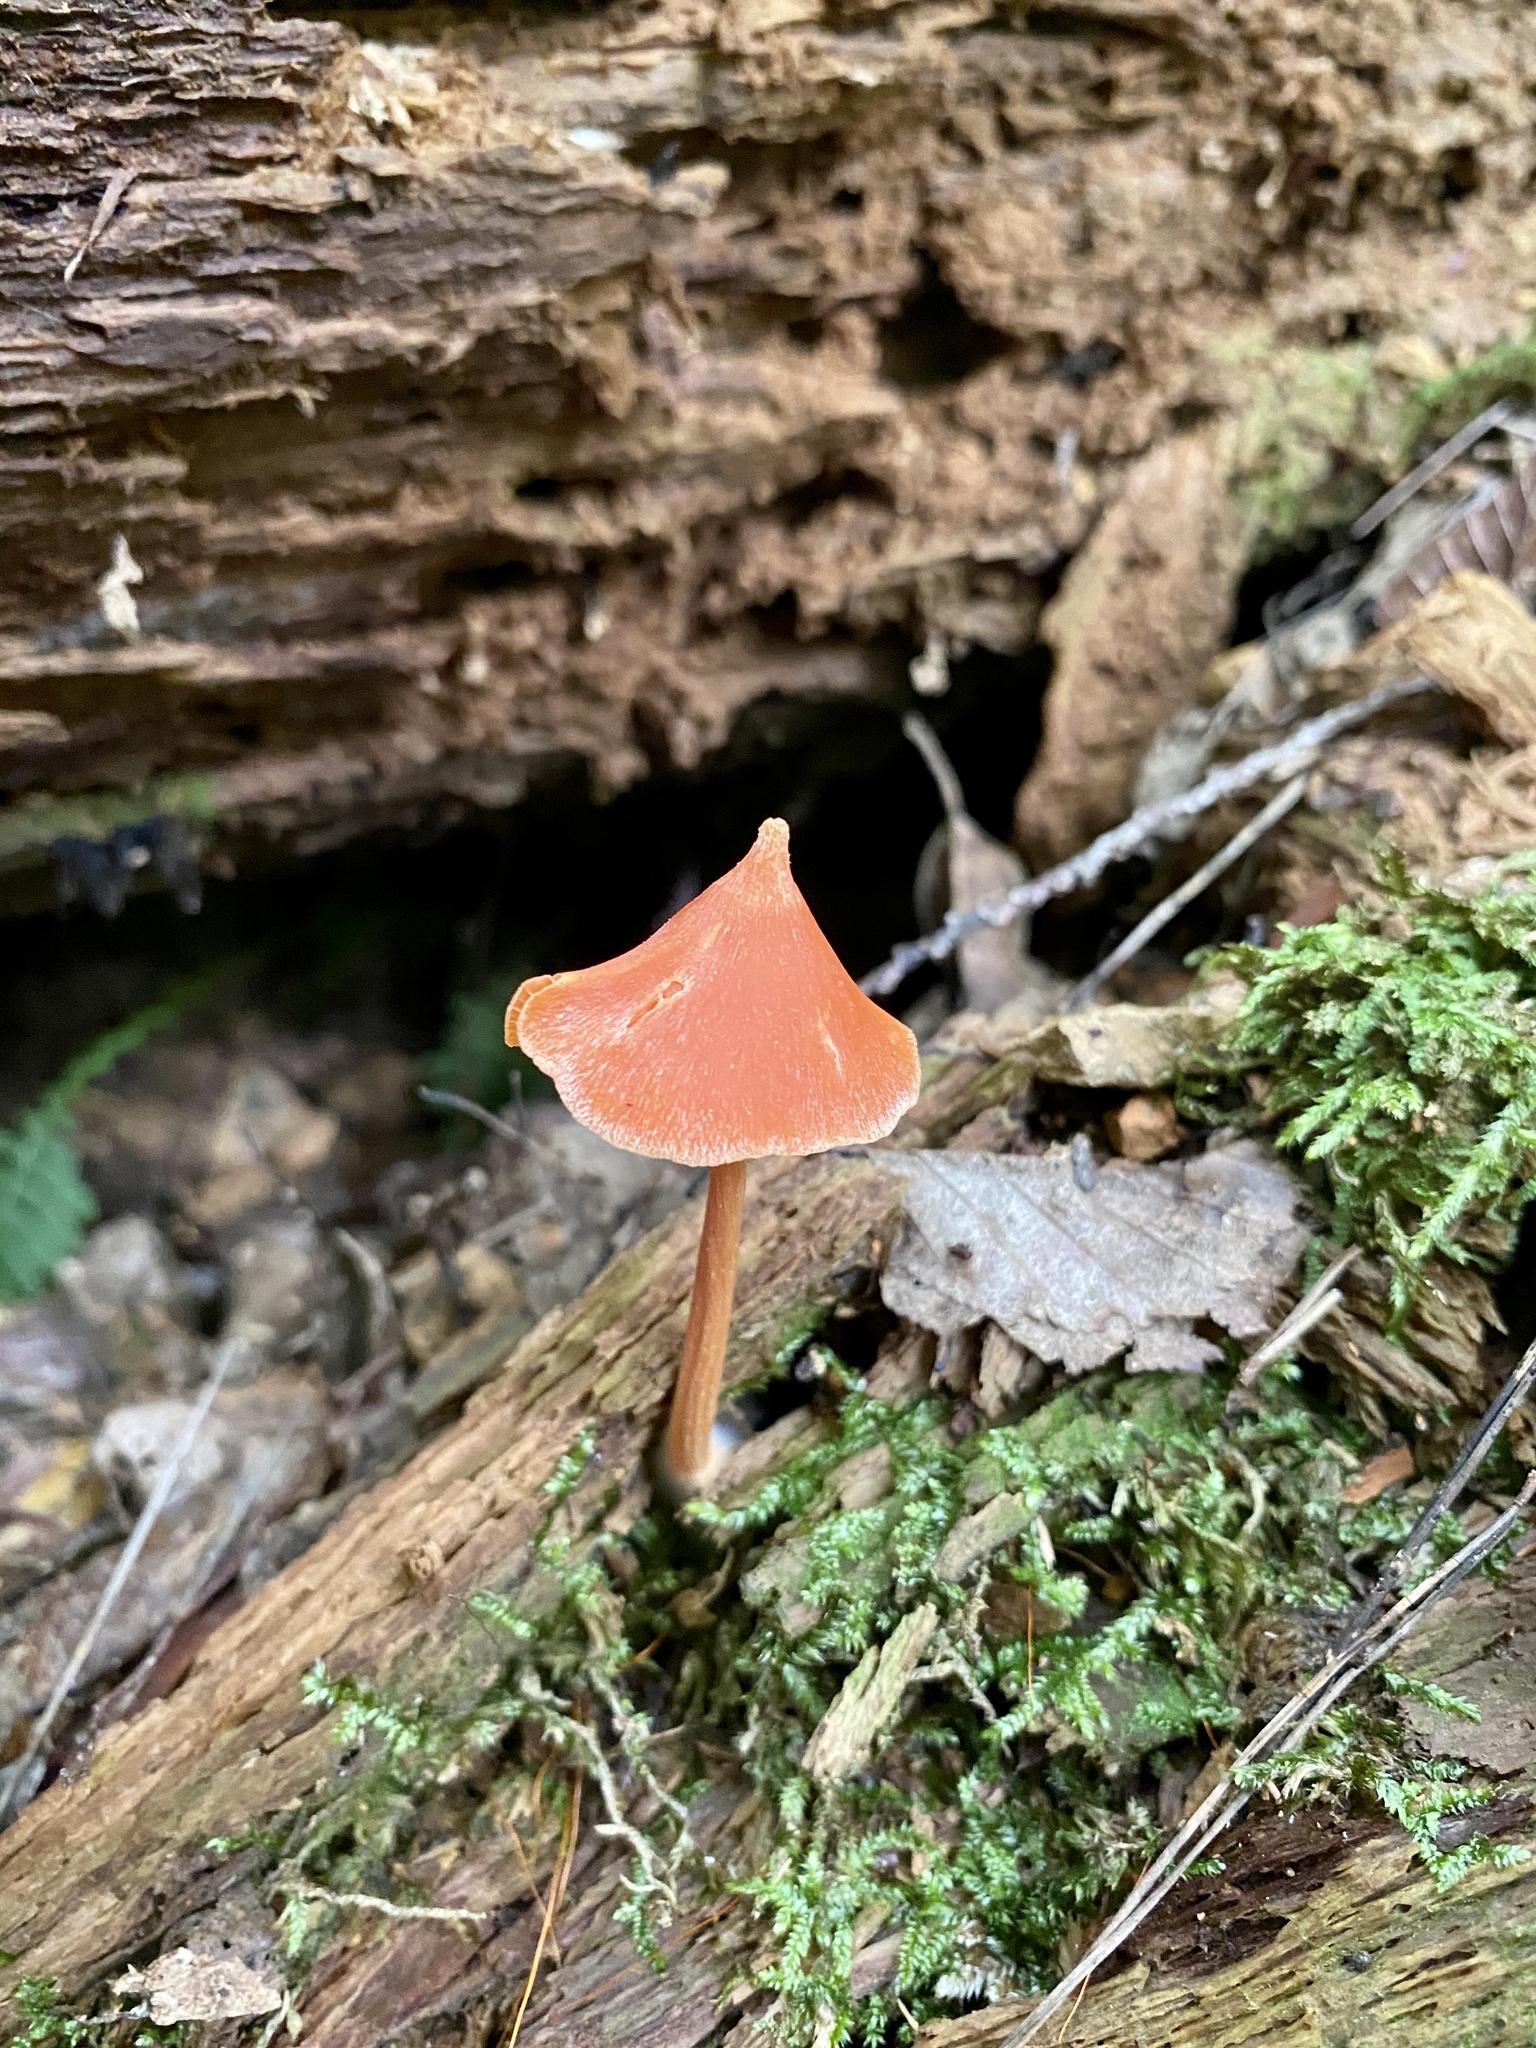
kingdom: Fungi
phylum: Basidiomycota
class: Agaricomycetes
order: Agaricales
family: Entolomataceae
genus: Entoloma
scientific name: Entoloma quadratum
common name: Salmon pinkgill
